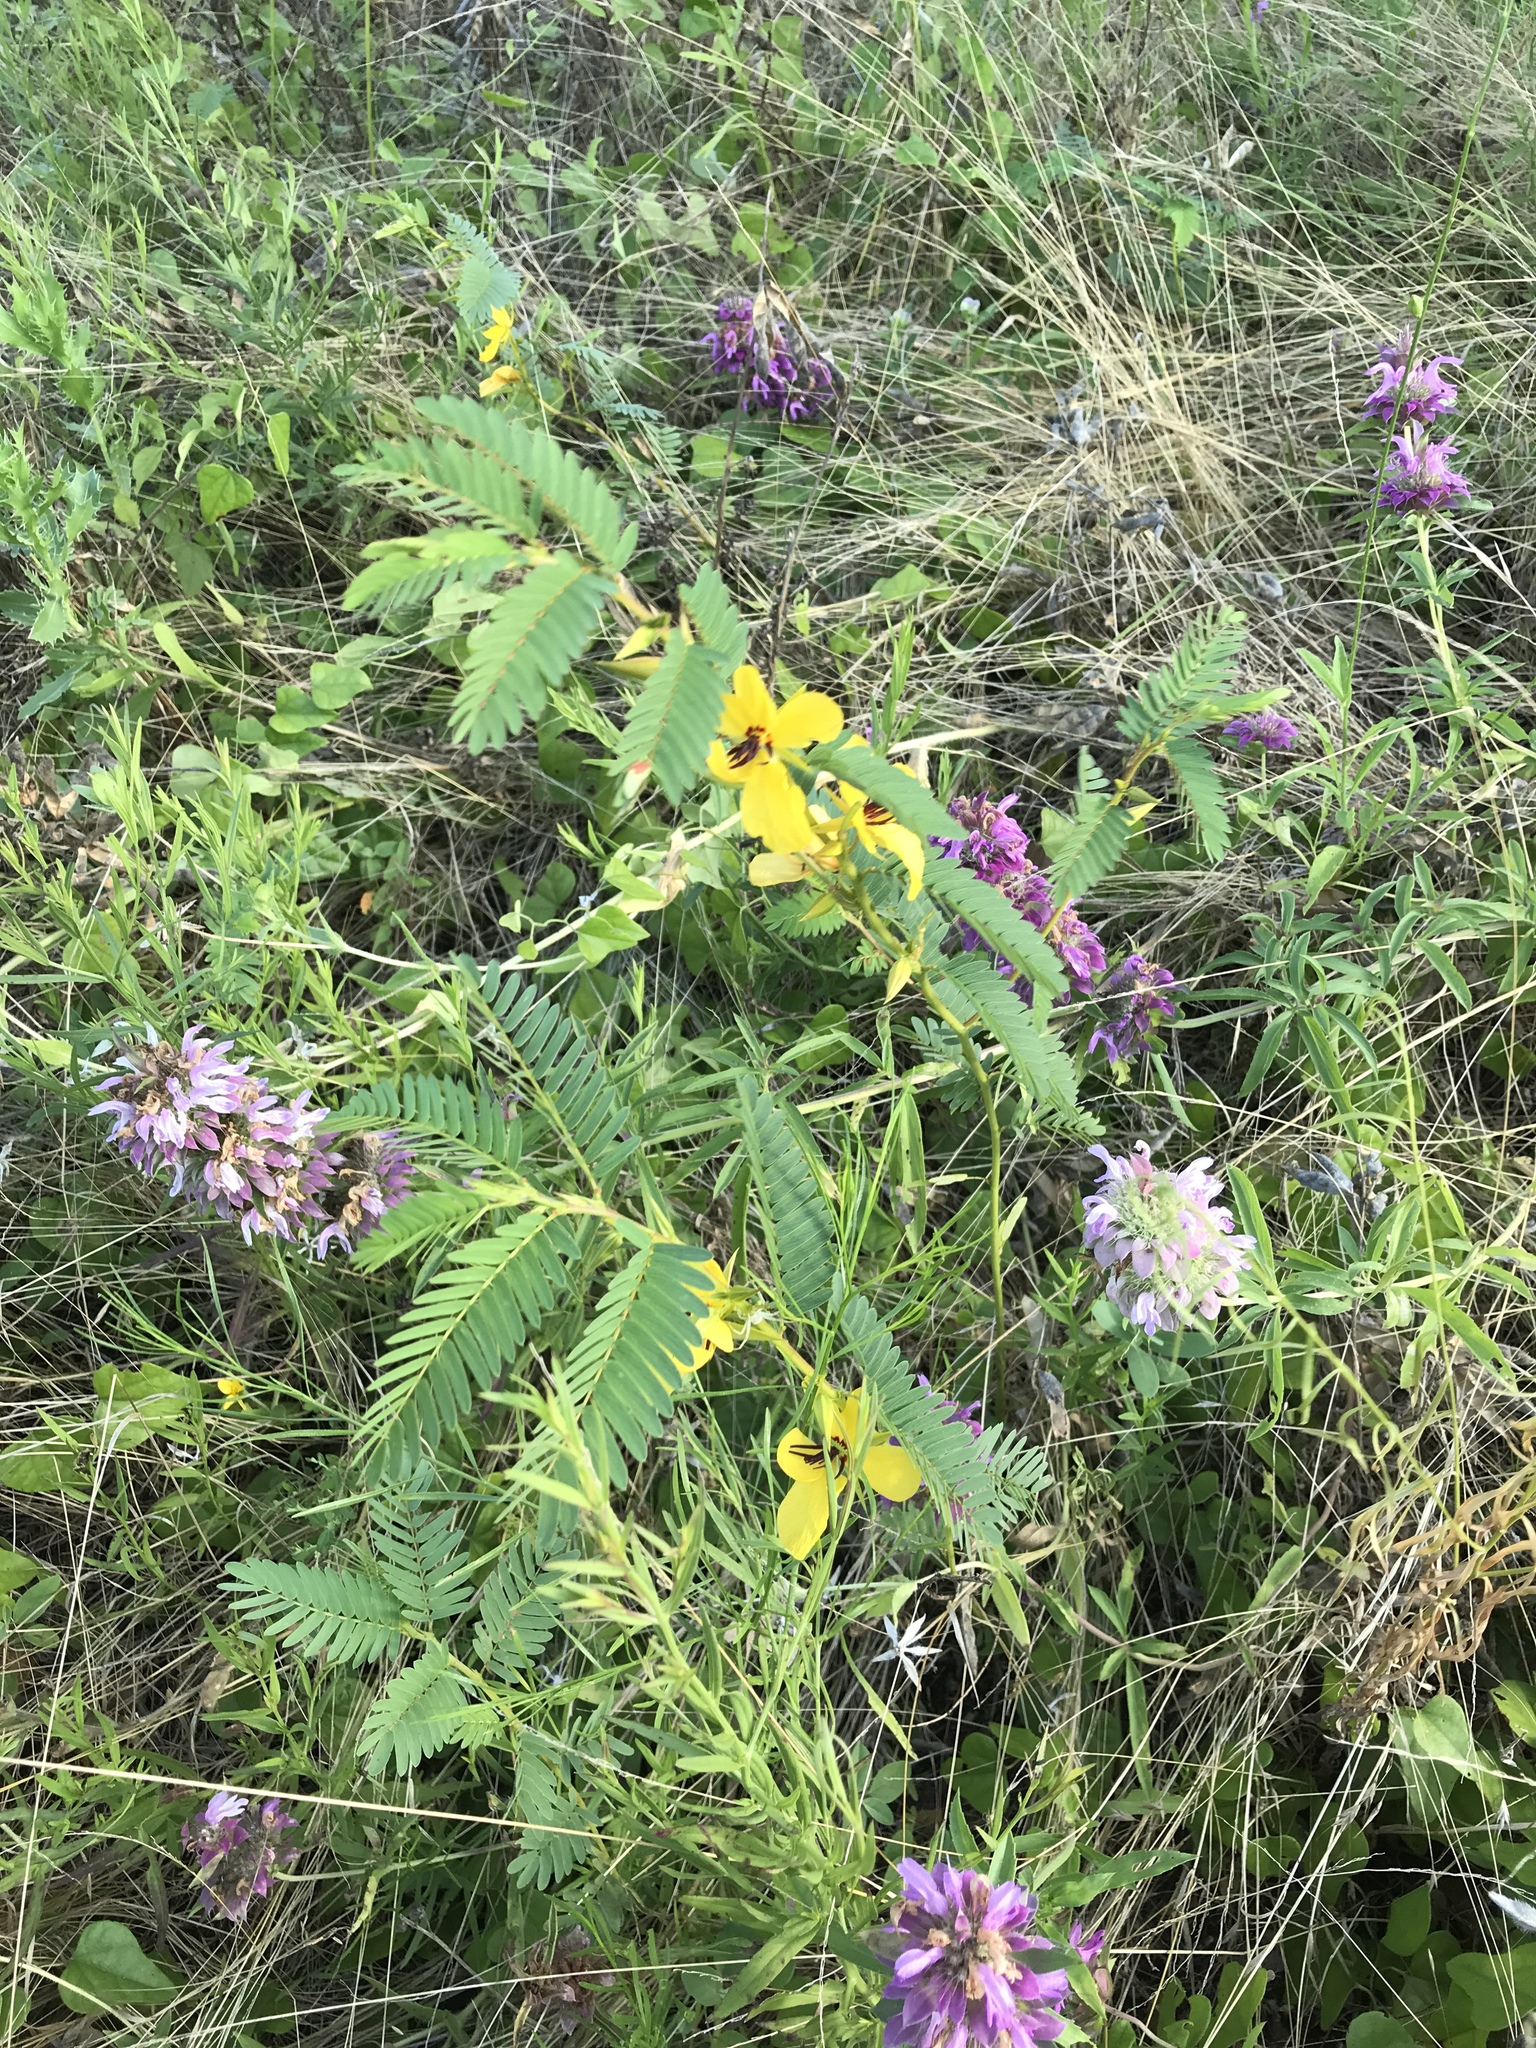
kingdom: Plantae
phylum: Tracheophyta
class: Magnoliopsida
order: Fabales
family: Fabaceae
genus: Chamaecrista
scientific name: Chamaecrista fasciculata
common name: Golden cassia
